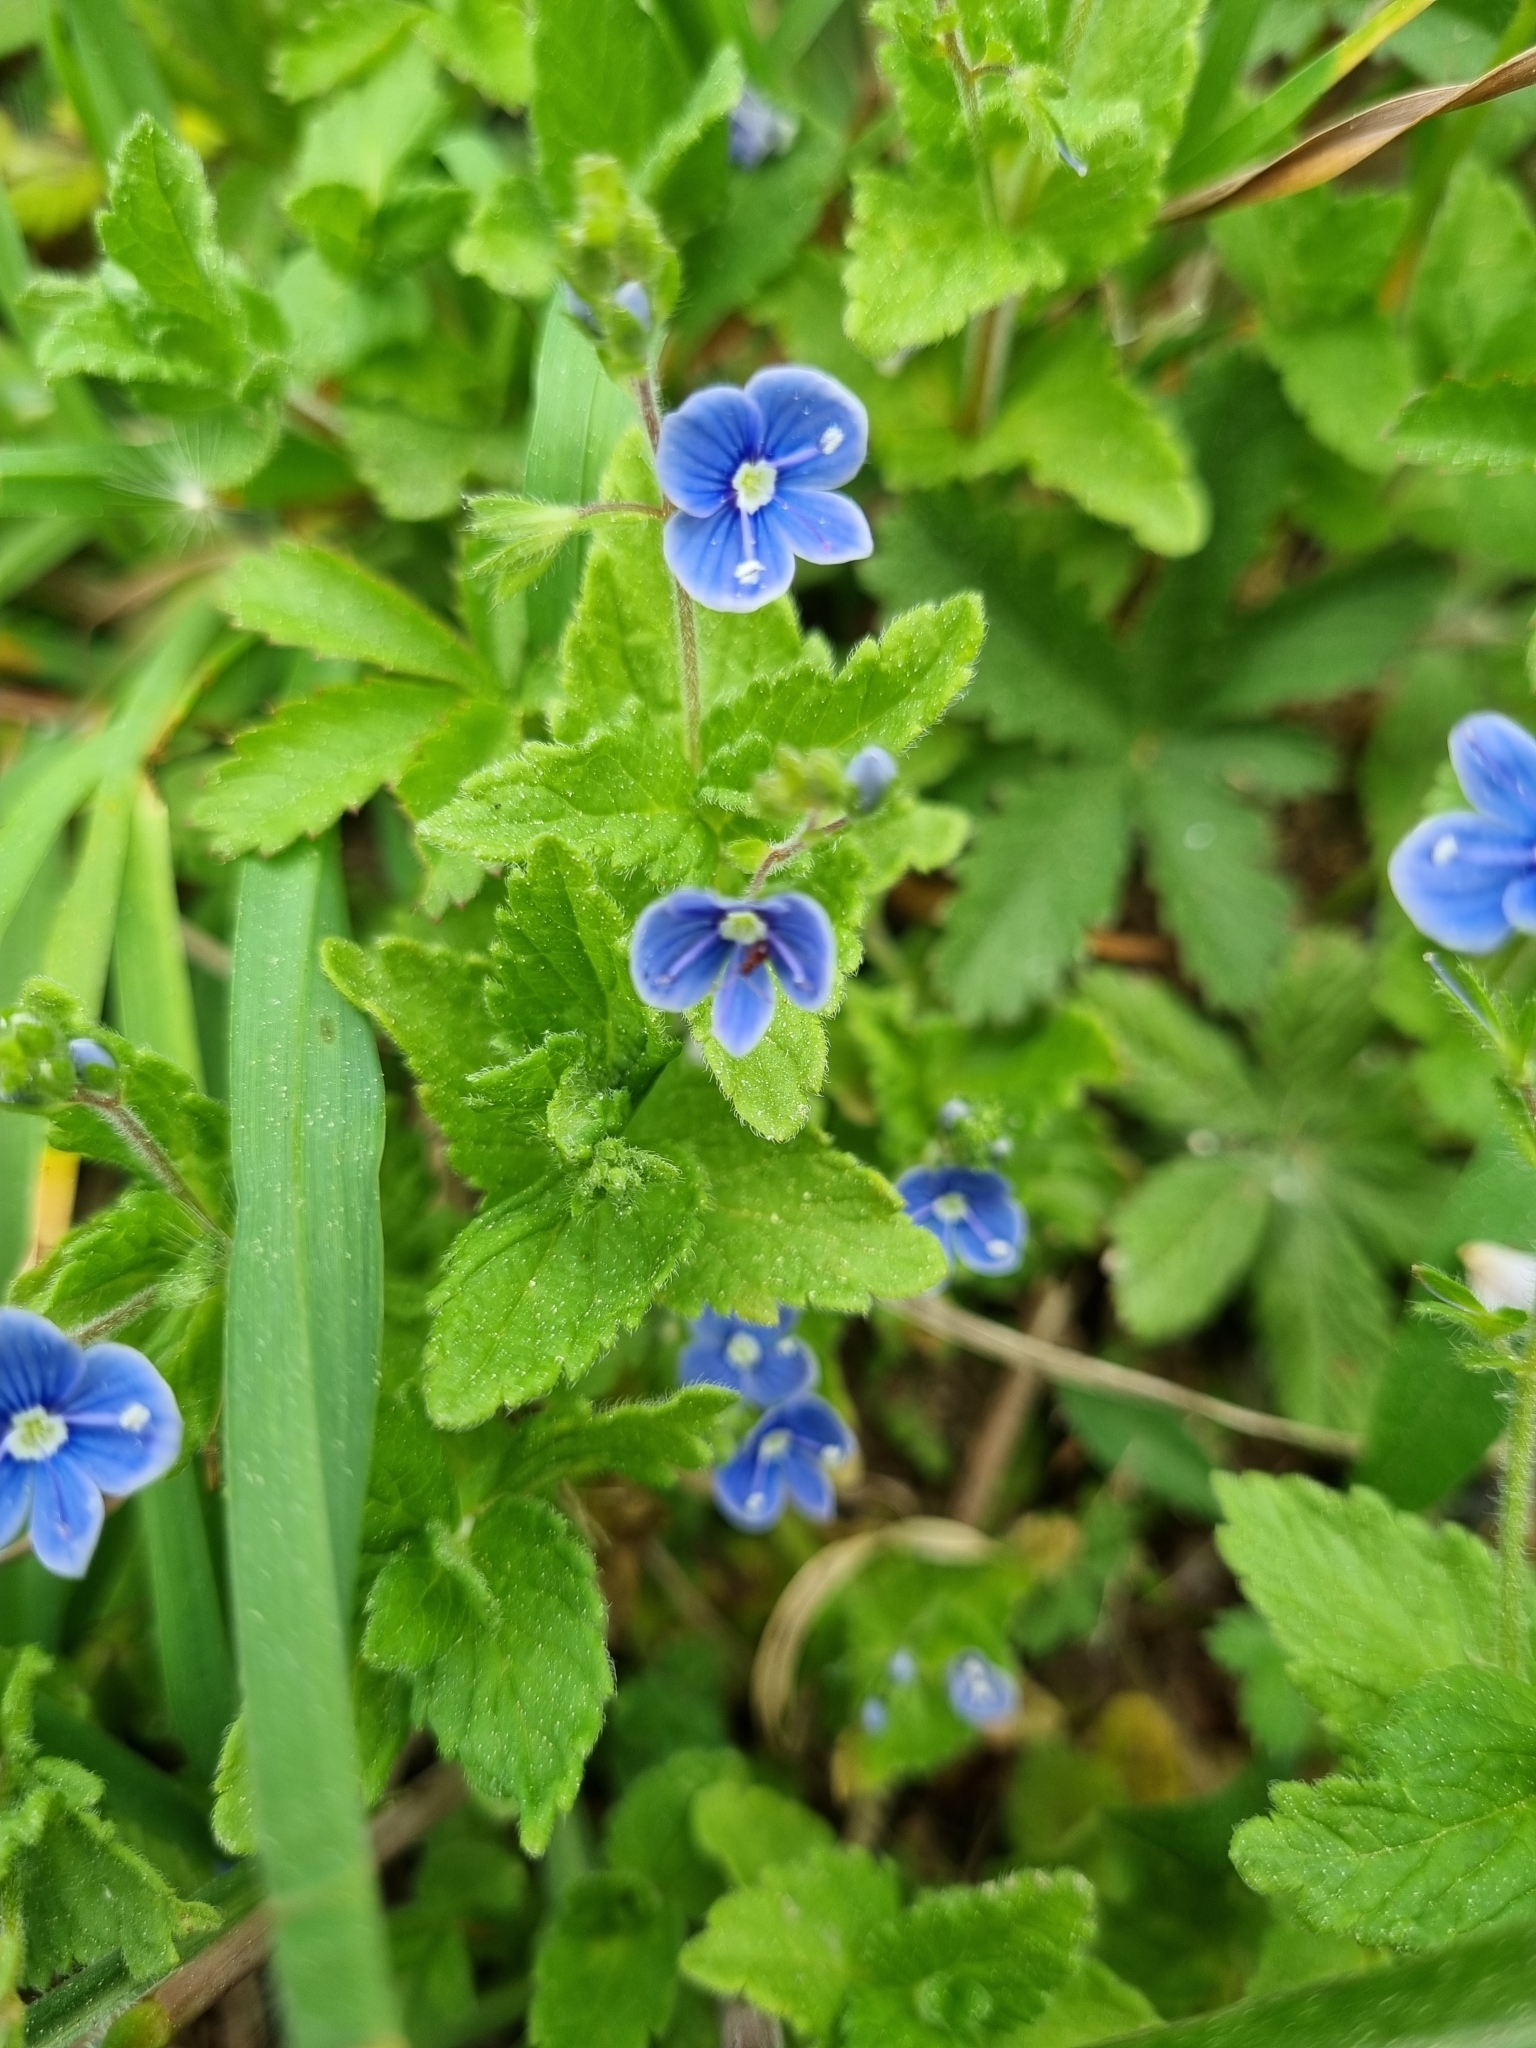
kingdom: Plantae
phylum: Tracheophyta
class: Magnoliopsida
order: Lamiales
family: Plantaginaceae
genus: Veronica
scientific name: Veronica chamaedrys
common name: Germander speedwell
